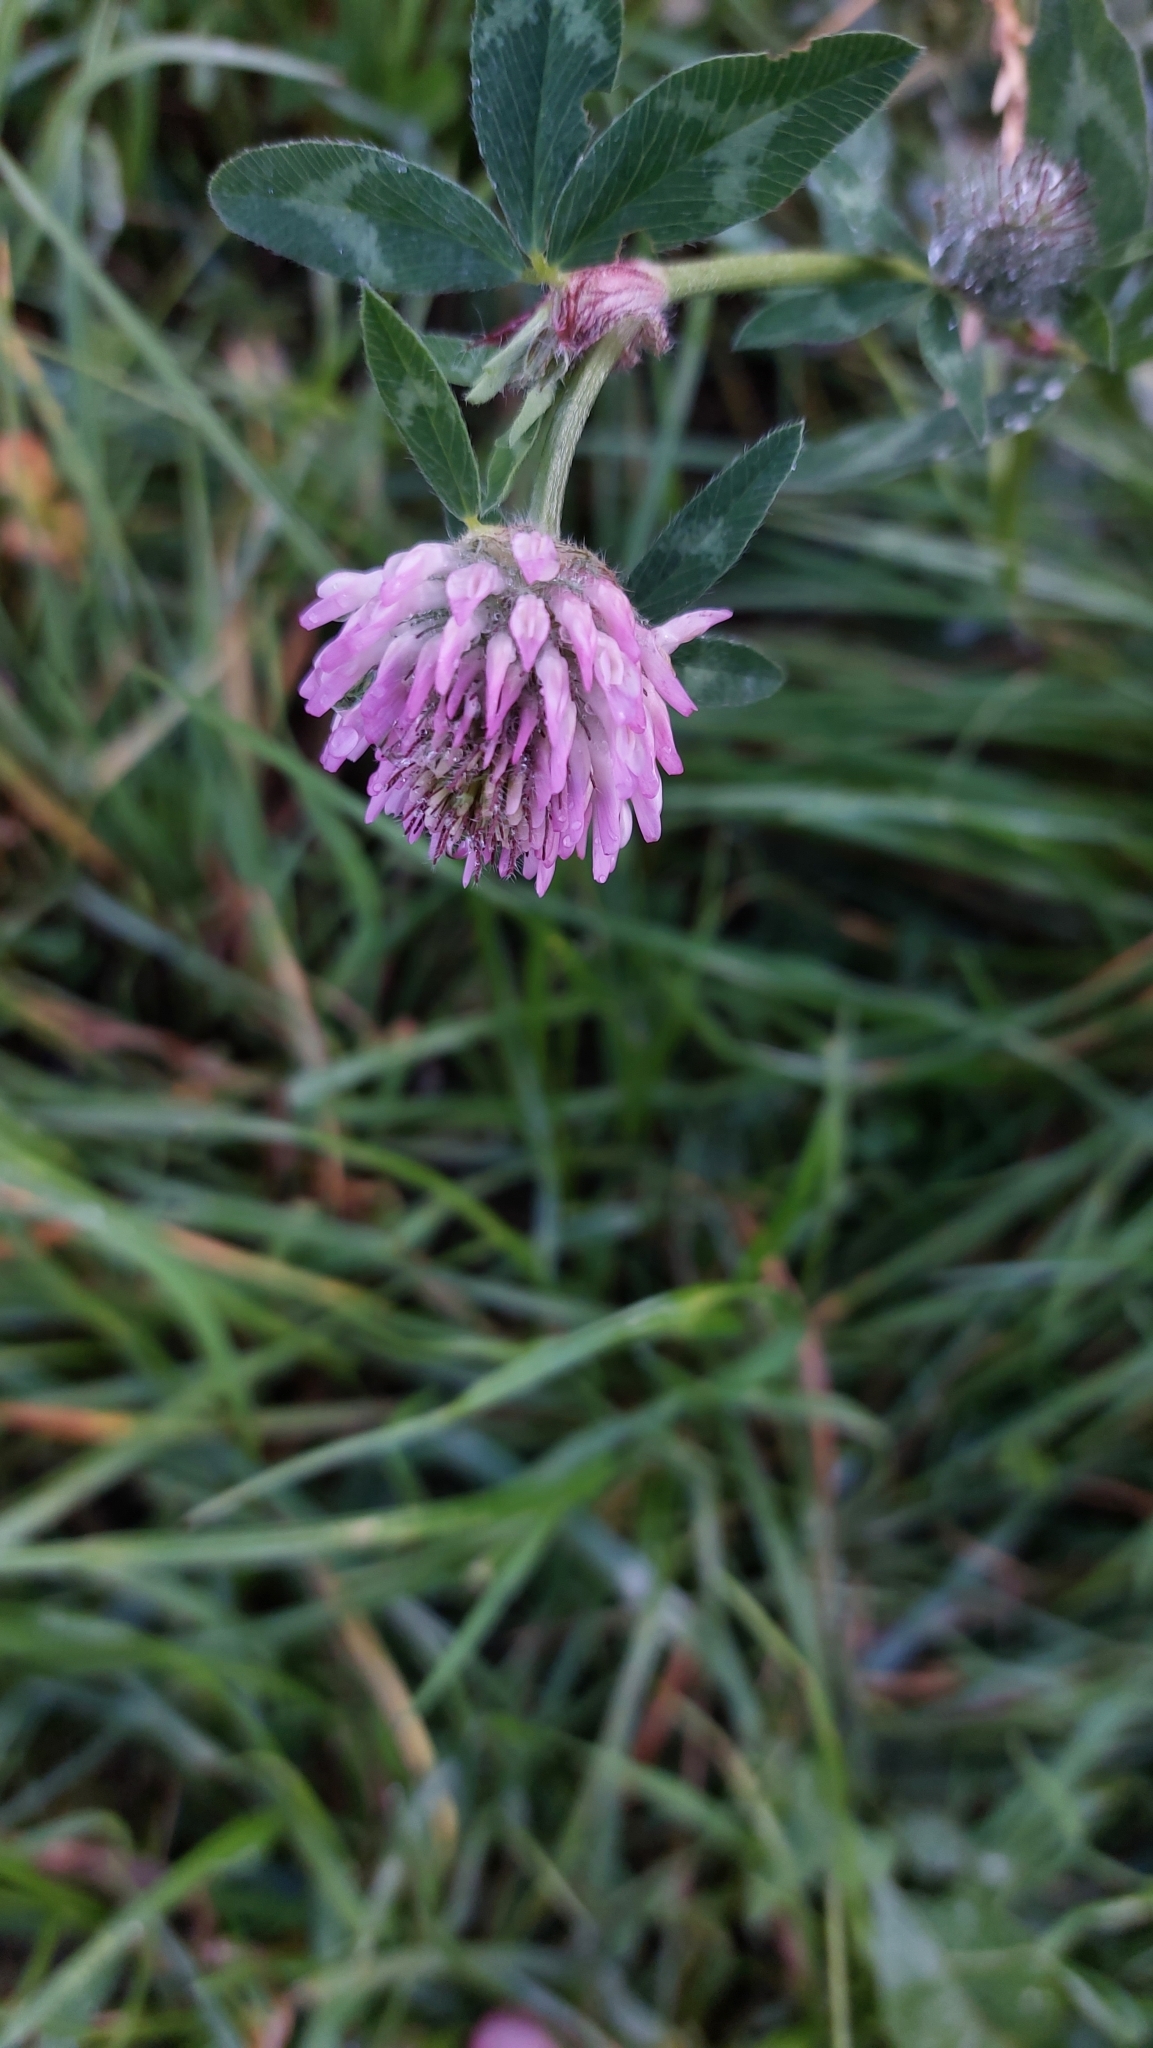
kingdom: Plantae
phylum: Tracheophyta
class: Magnoliopsida
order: Fabales
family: Fabaceae
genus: Trifolium
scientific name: Trifolium pratense
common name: Red clover
